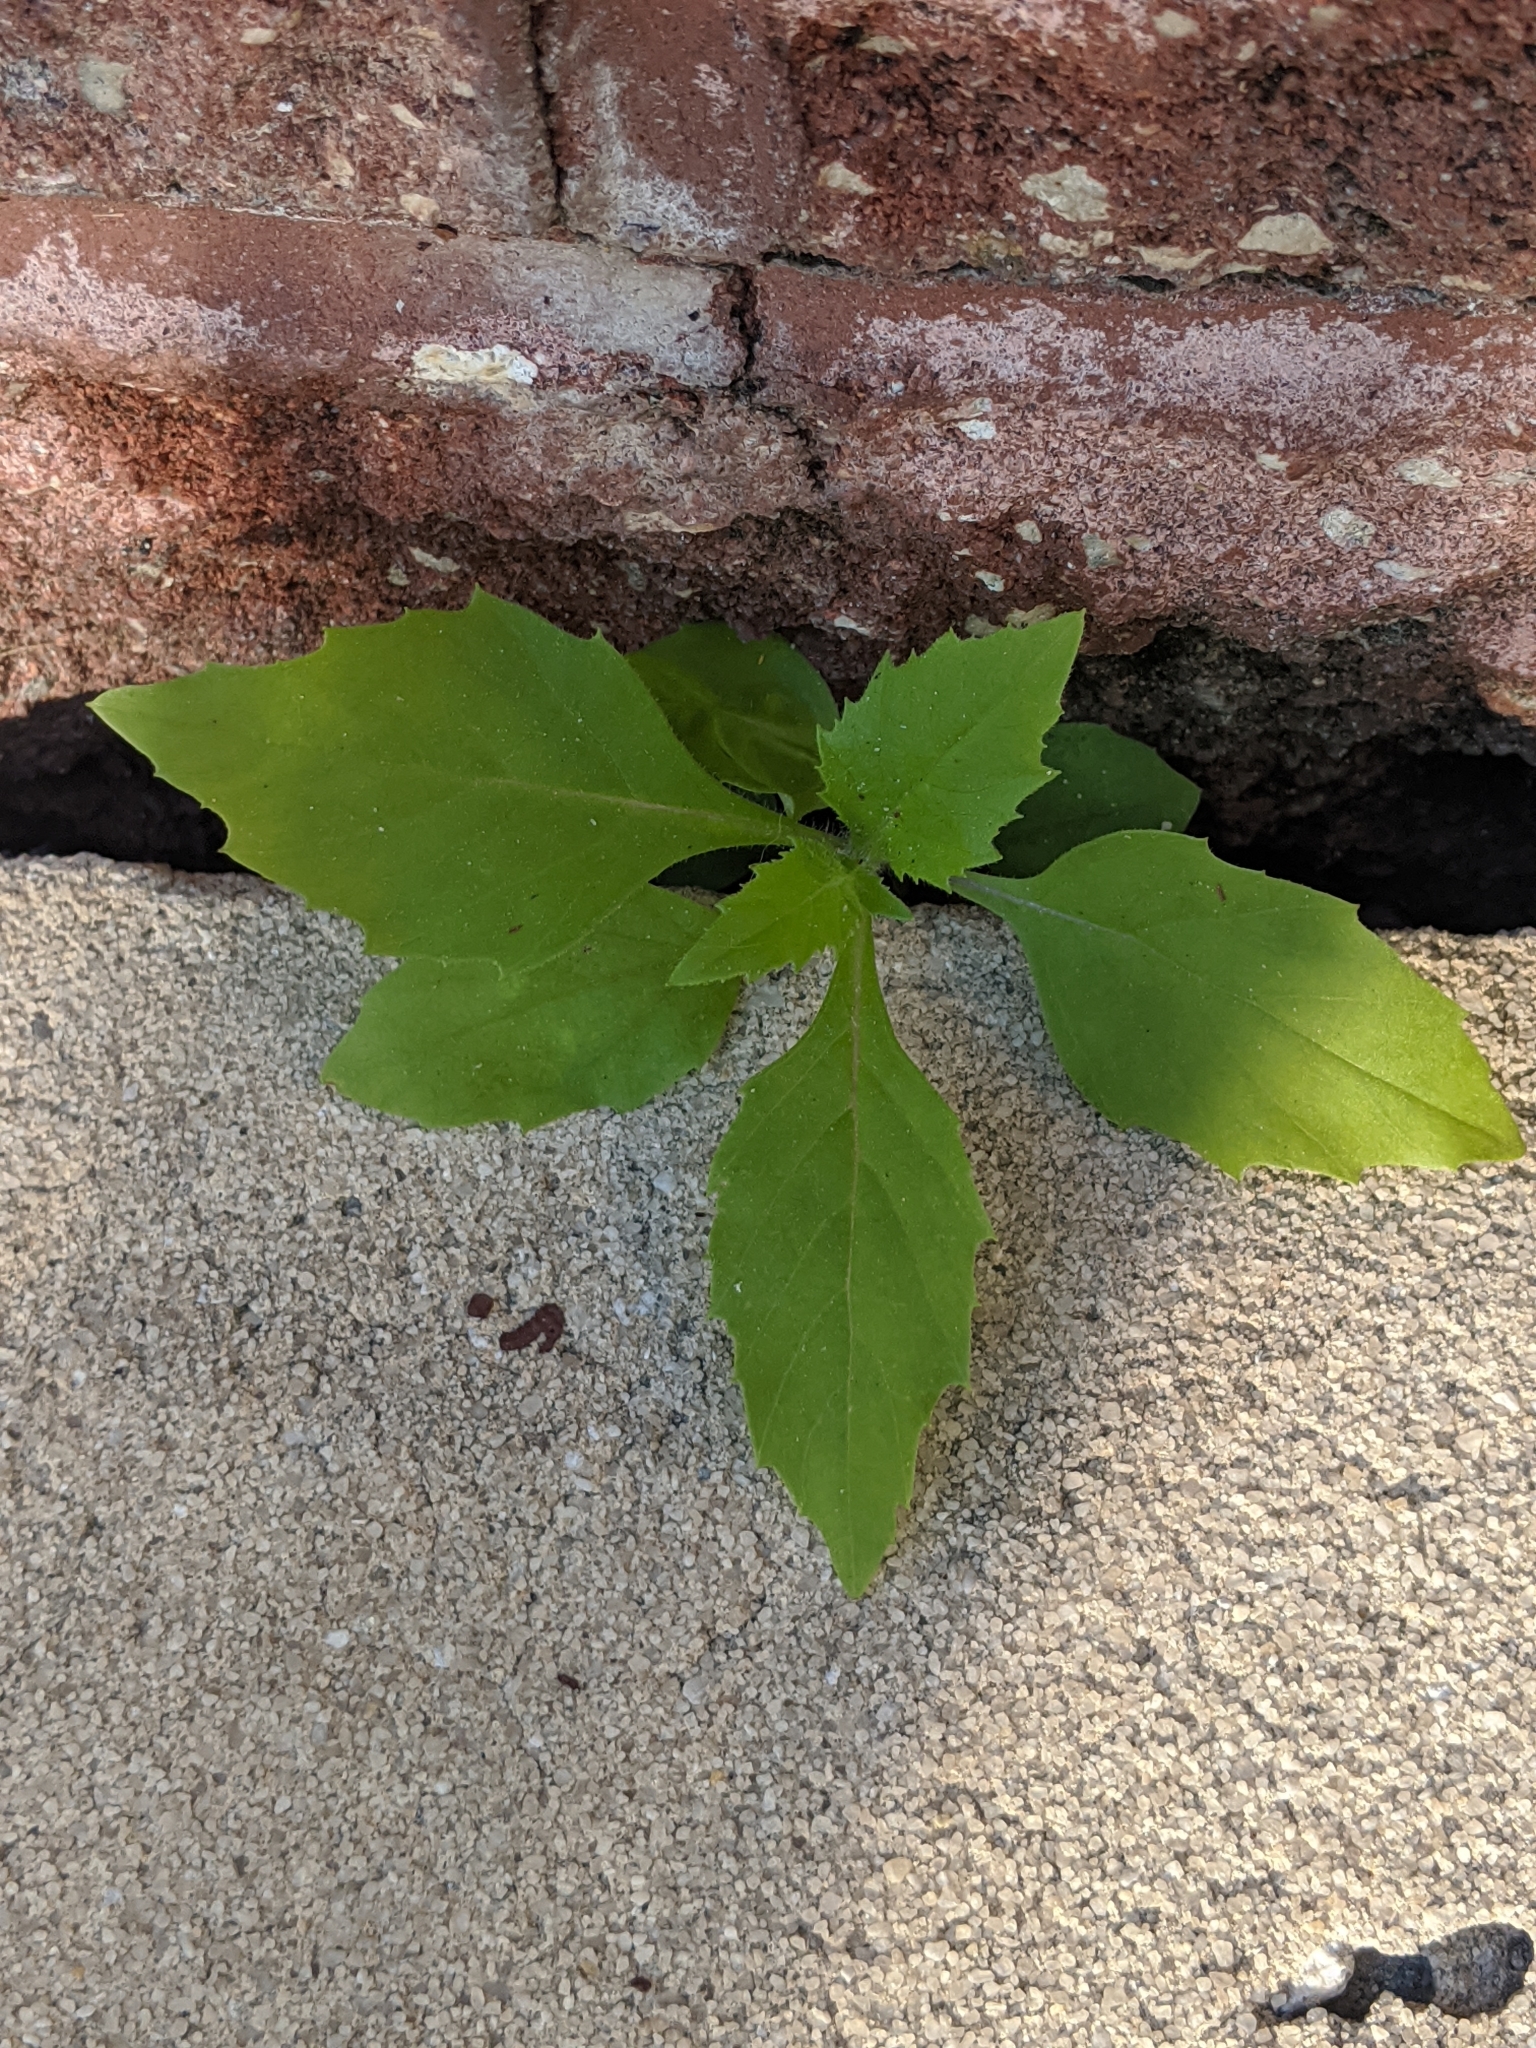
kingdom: Plantae
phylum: Tracheophyta
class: Magnoliopsida
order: Asterales
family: Asteraceae
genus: Erechtites
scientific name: Erechtites hieraciifolius
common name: American burnweed
